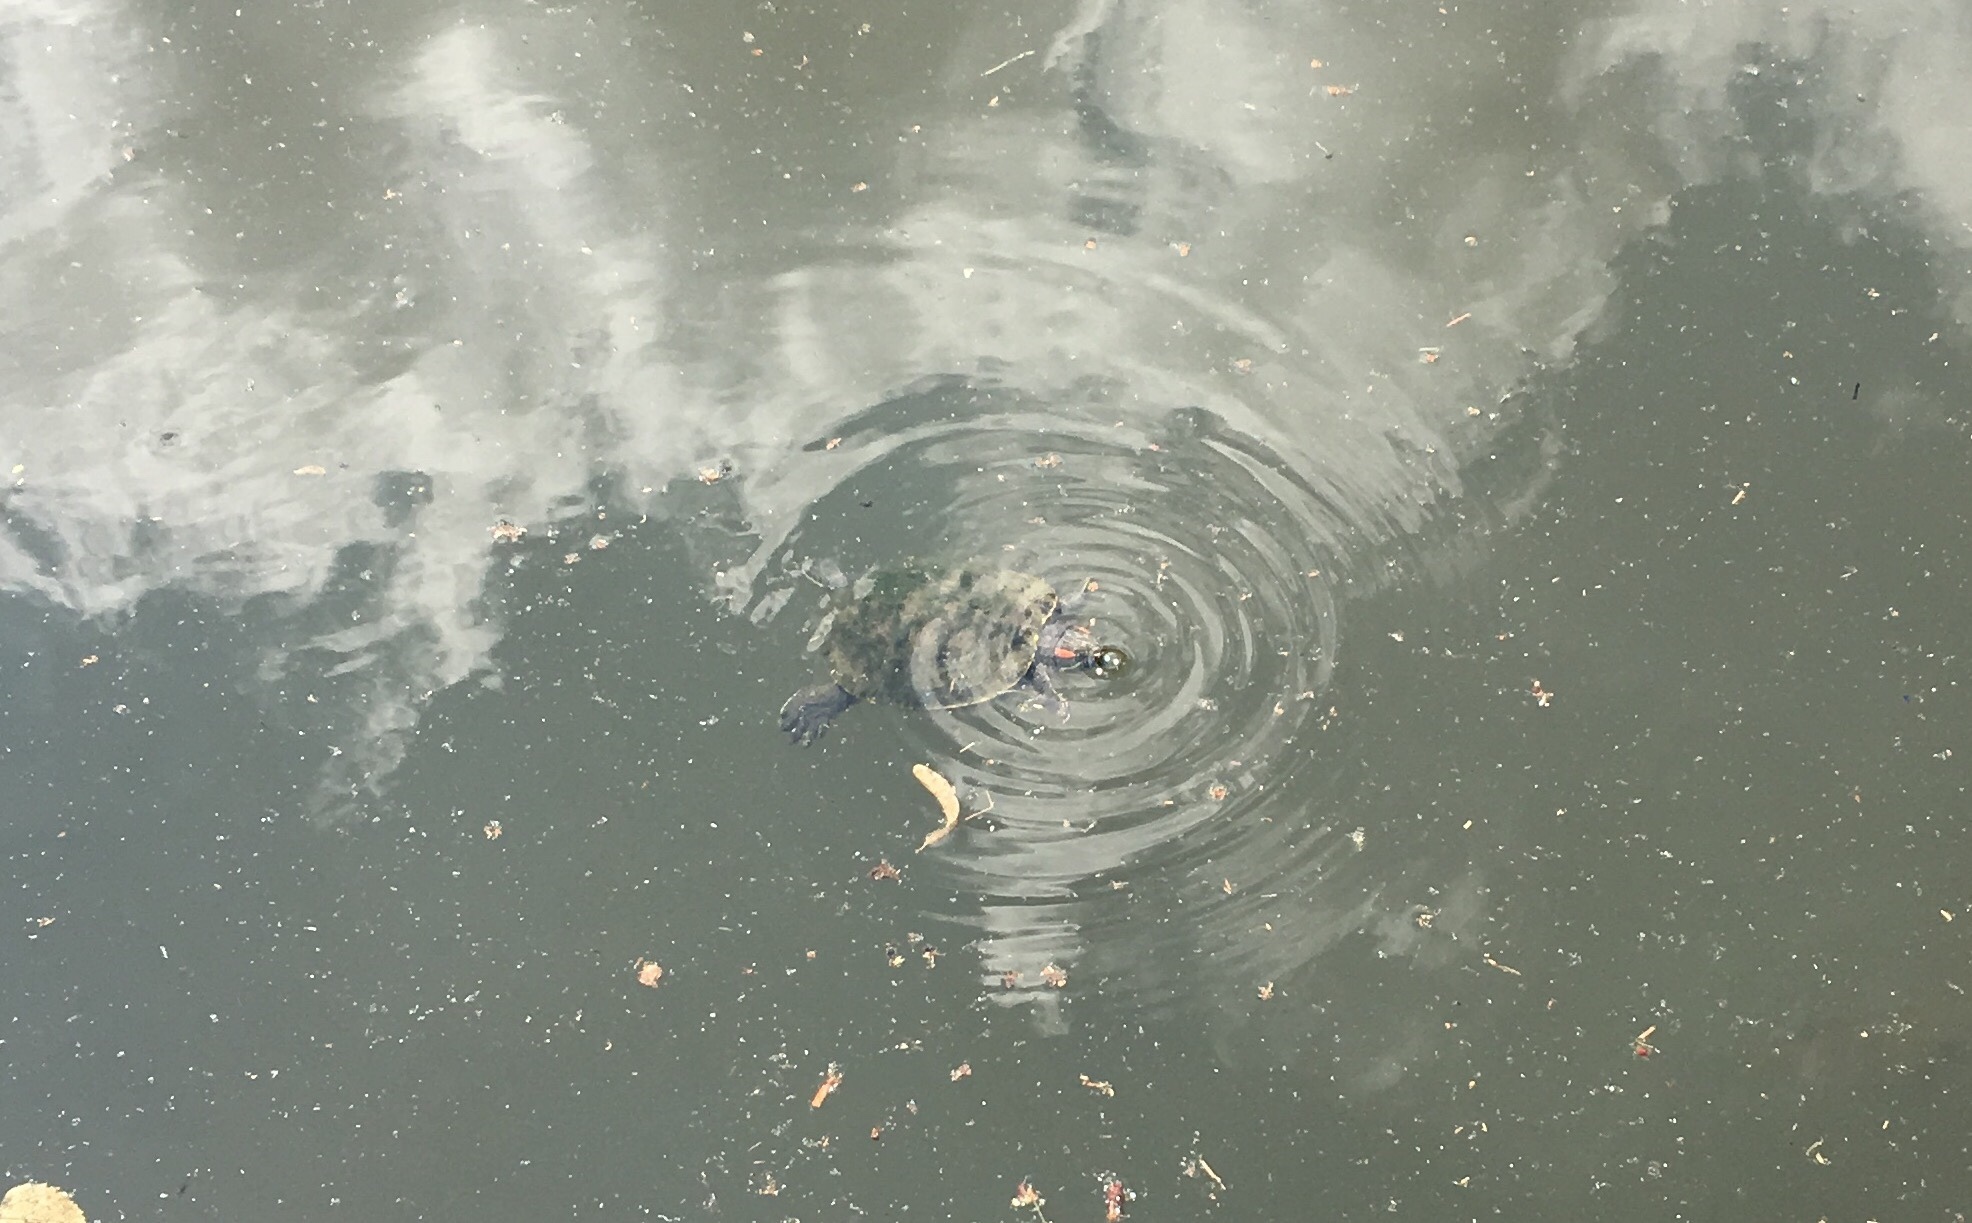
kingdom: Animalia
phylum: Chordata
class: Testudines
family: Emydidae
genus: Trachemys
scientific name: Trachemys scripta
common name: Slider
